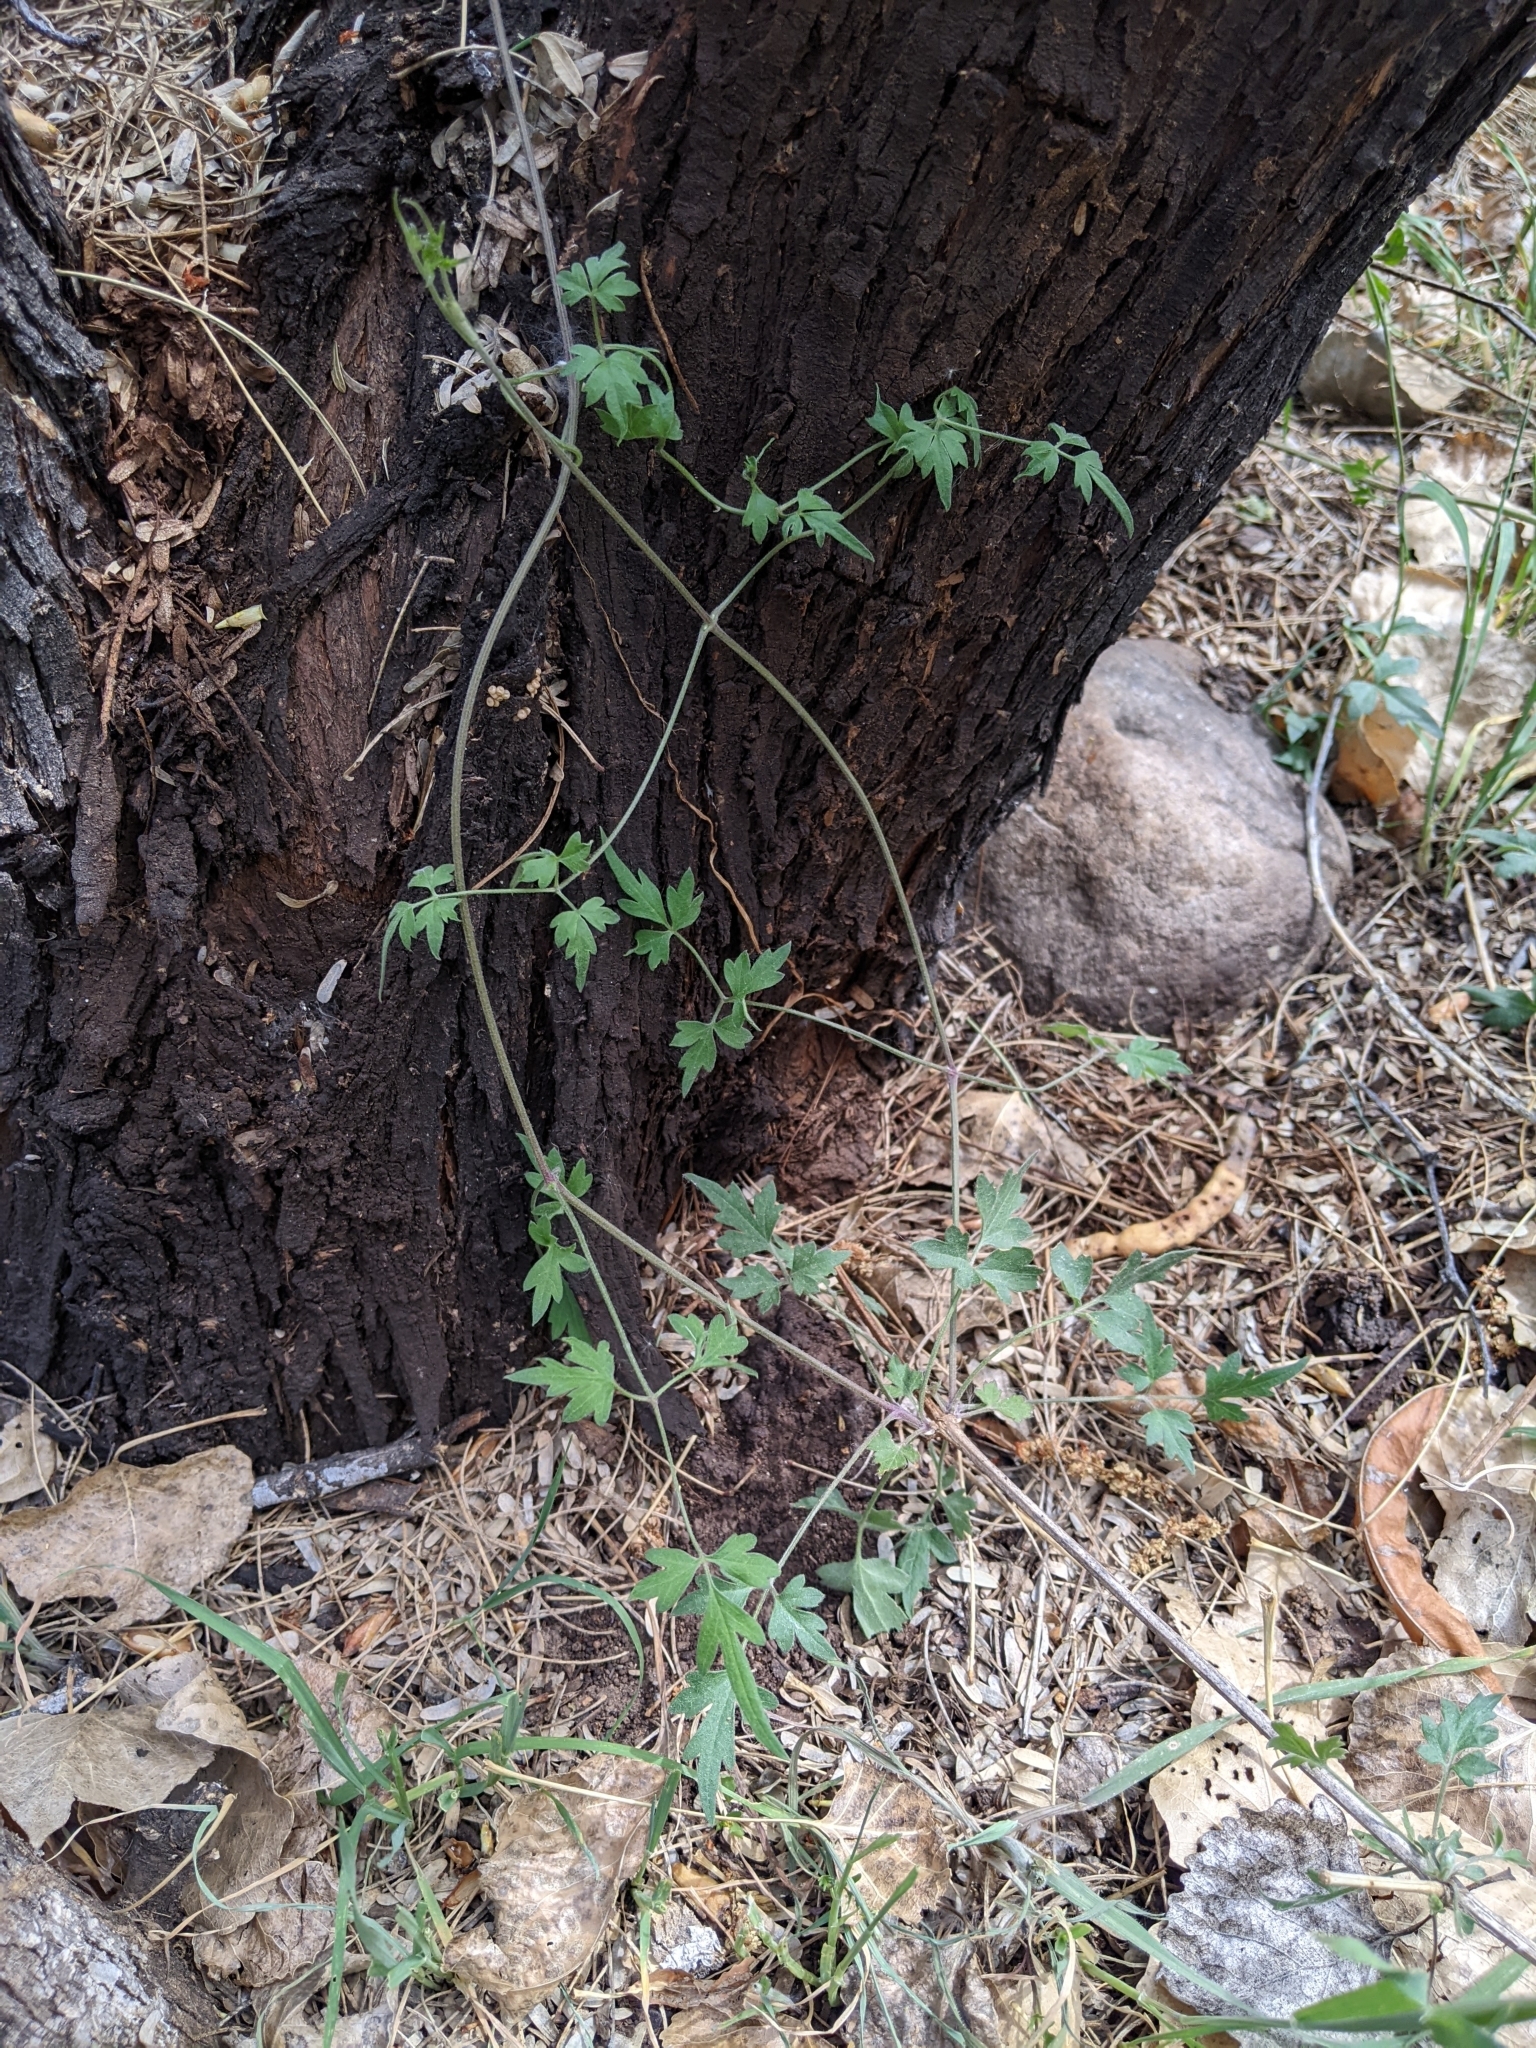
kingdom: Plantae
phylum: Tracheophyta
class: Magnoliopsida
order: Ranunculales
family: Ranunculaceae
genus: Clematis
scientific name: Clematis drummondii
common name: Texas virgin's bower
